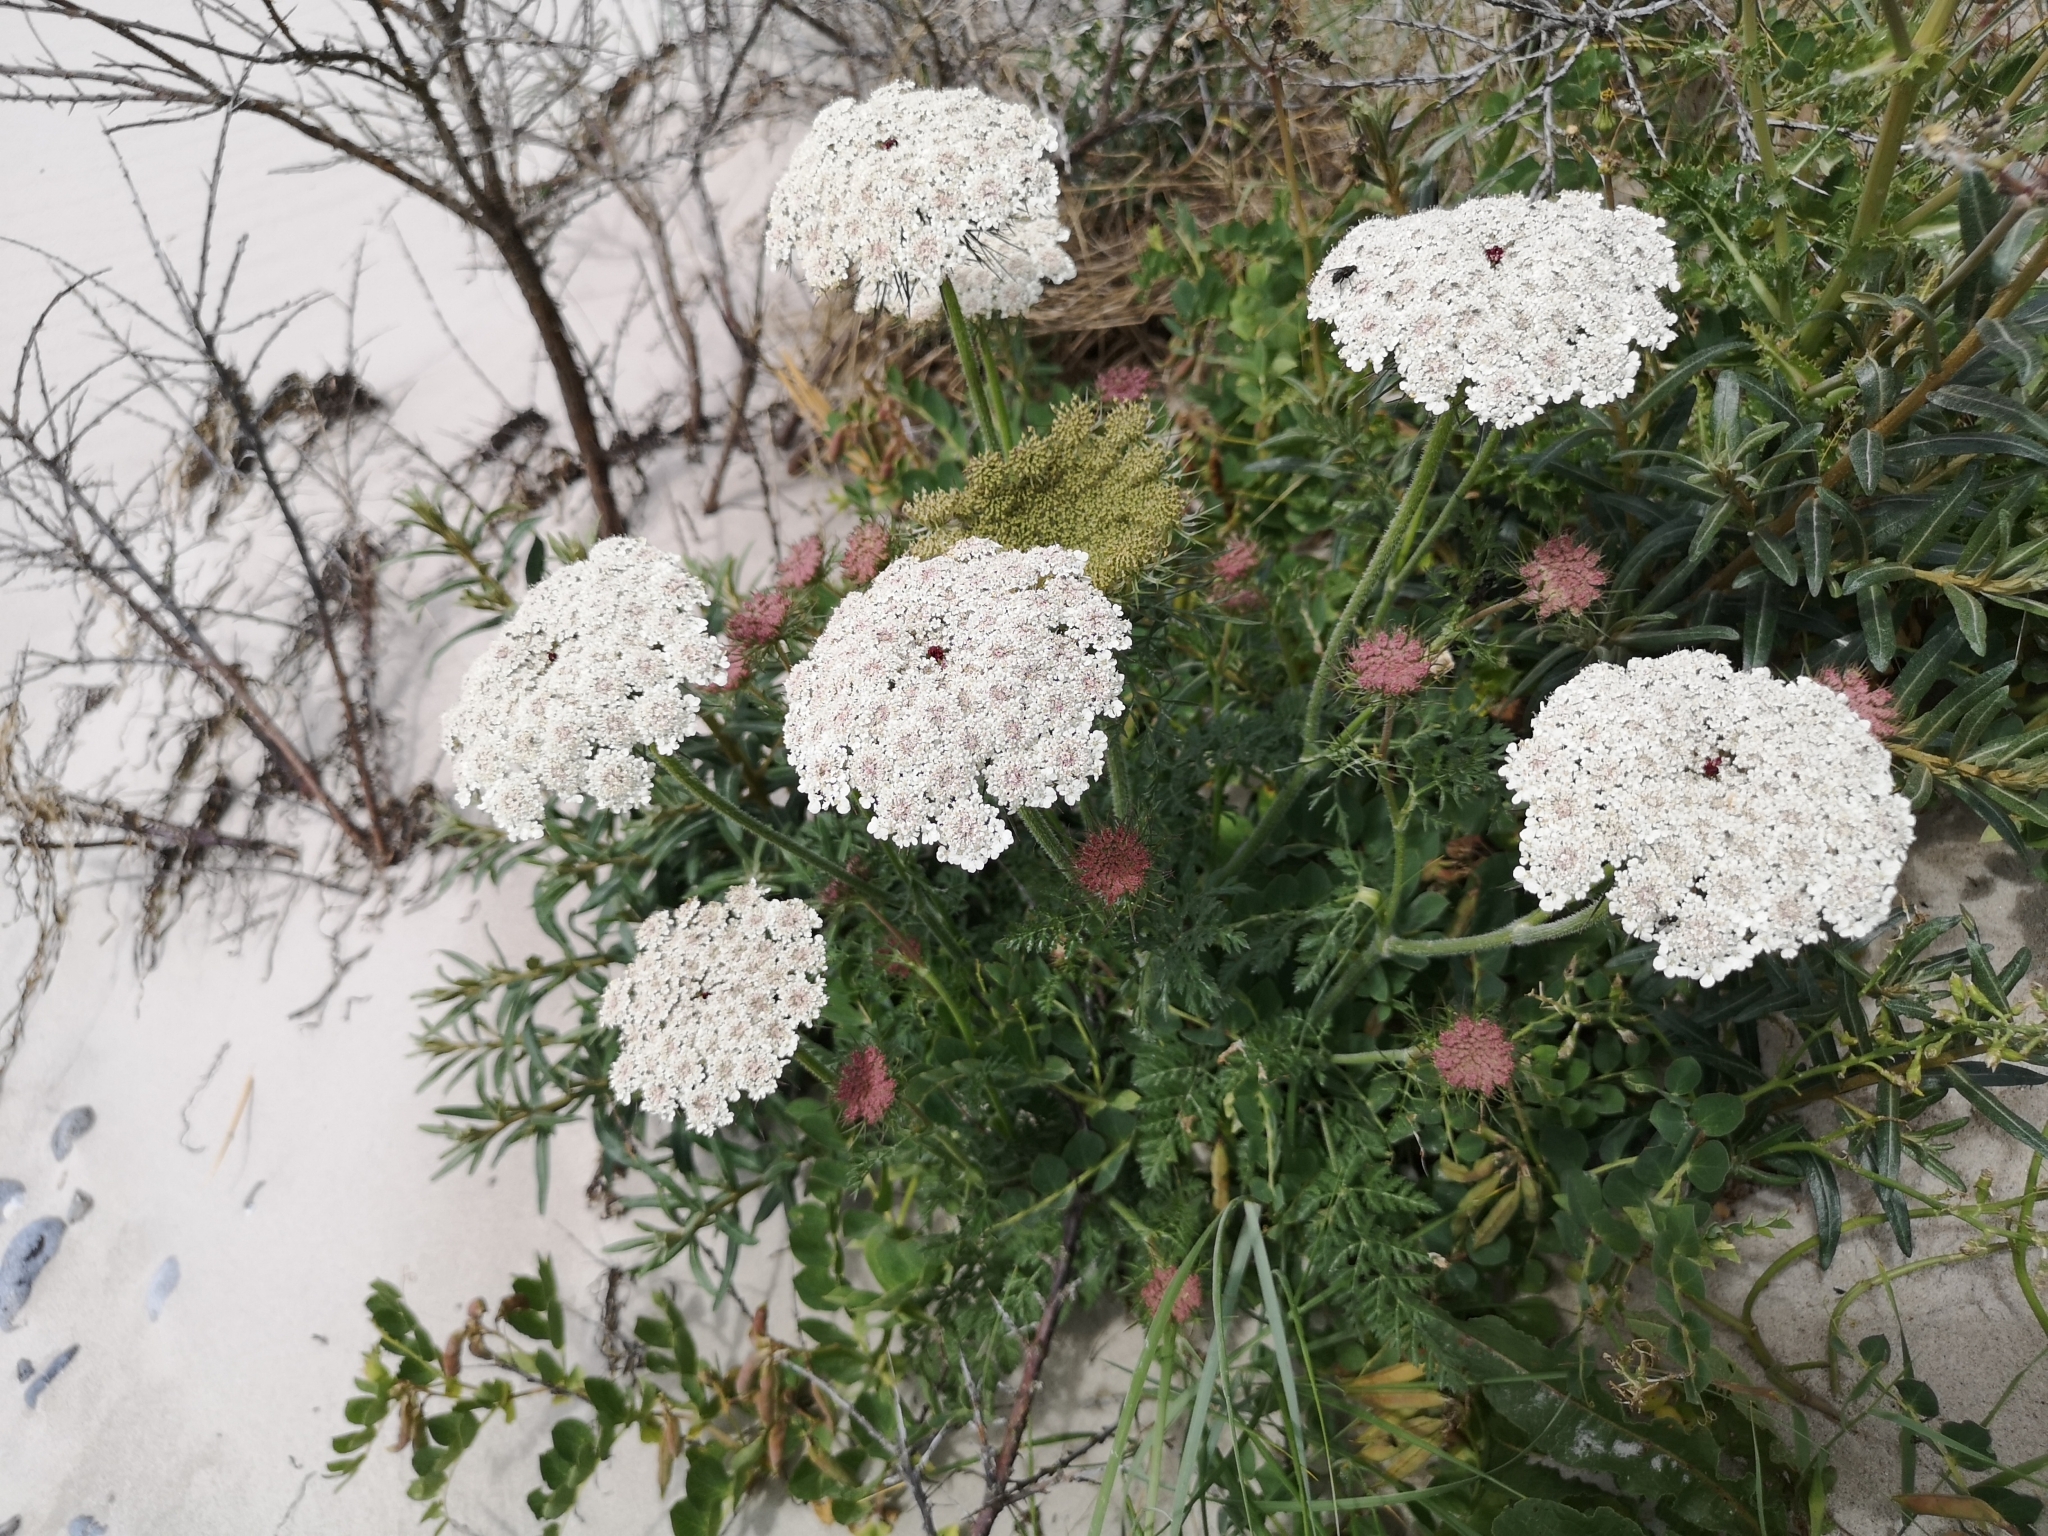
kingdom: Plantae
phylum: Tracheophyta
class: Magnoliopsida
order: Apiales
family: Apiaceae
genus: Daucus
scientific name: Daucus carota
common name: Wild carrot
